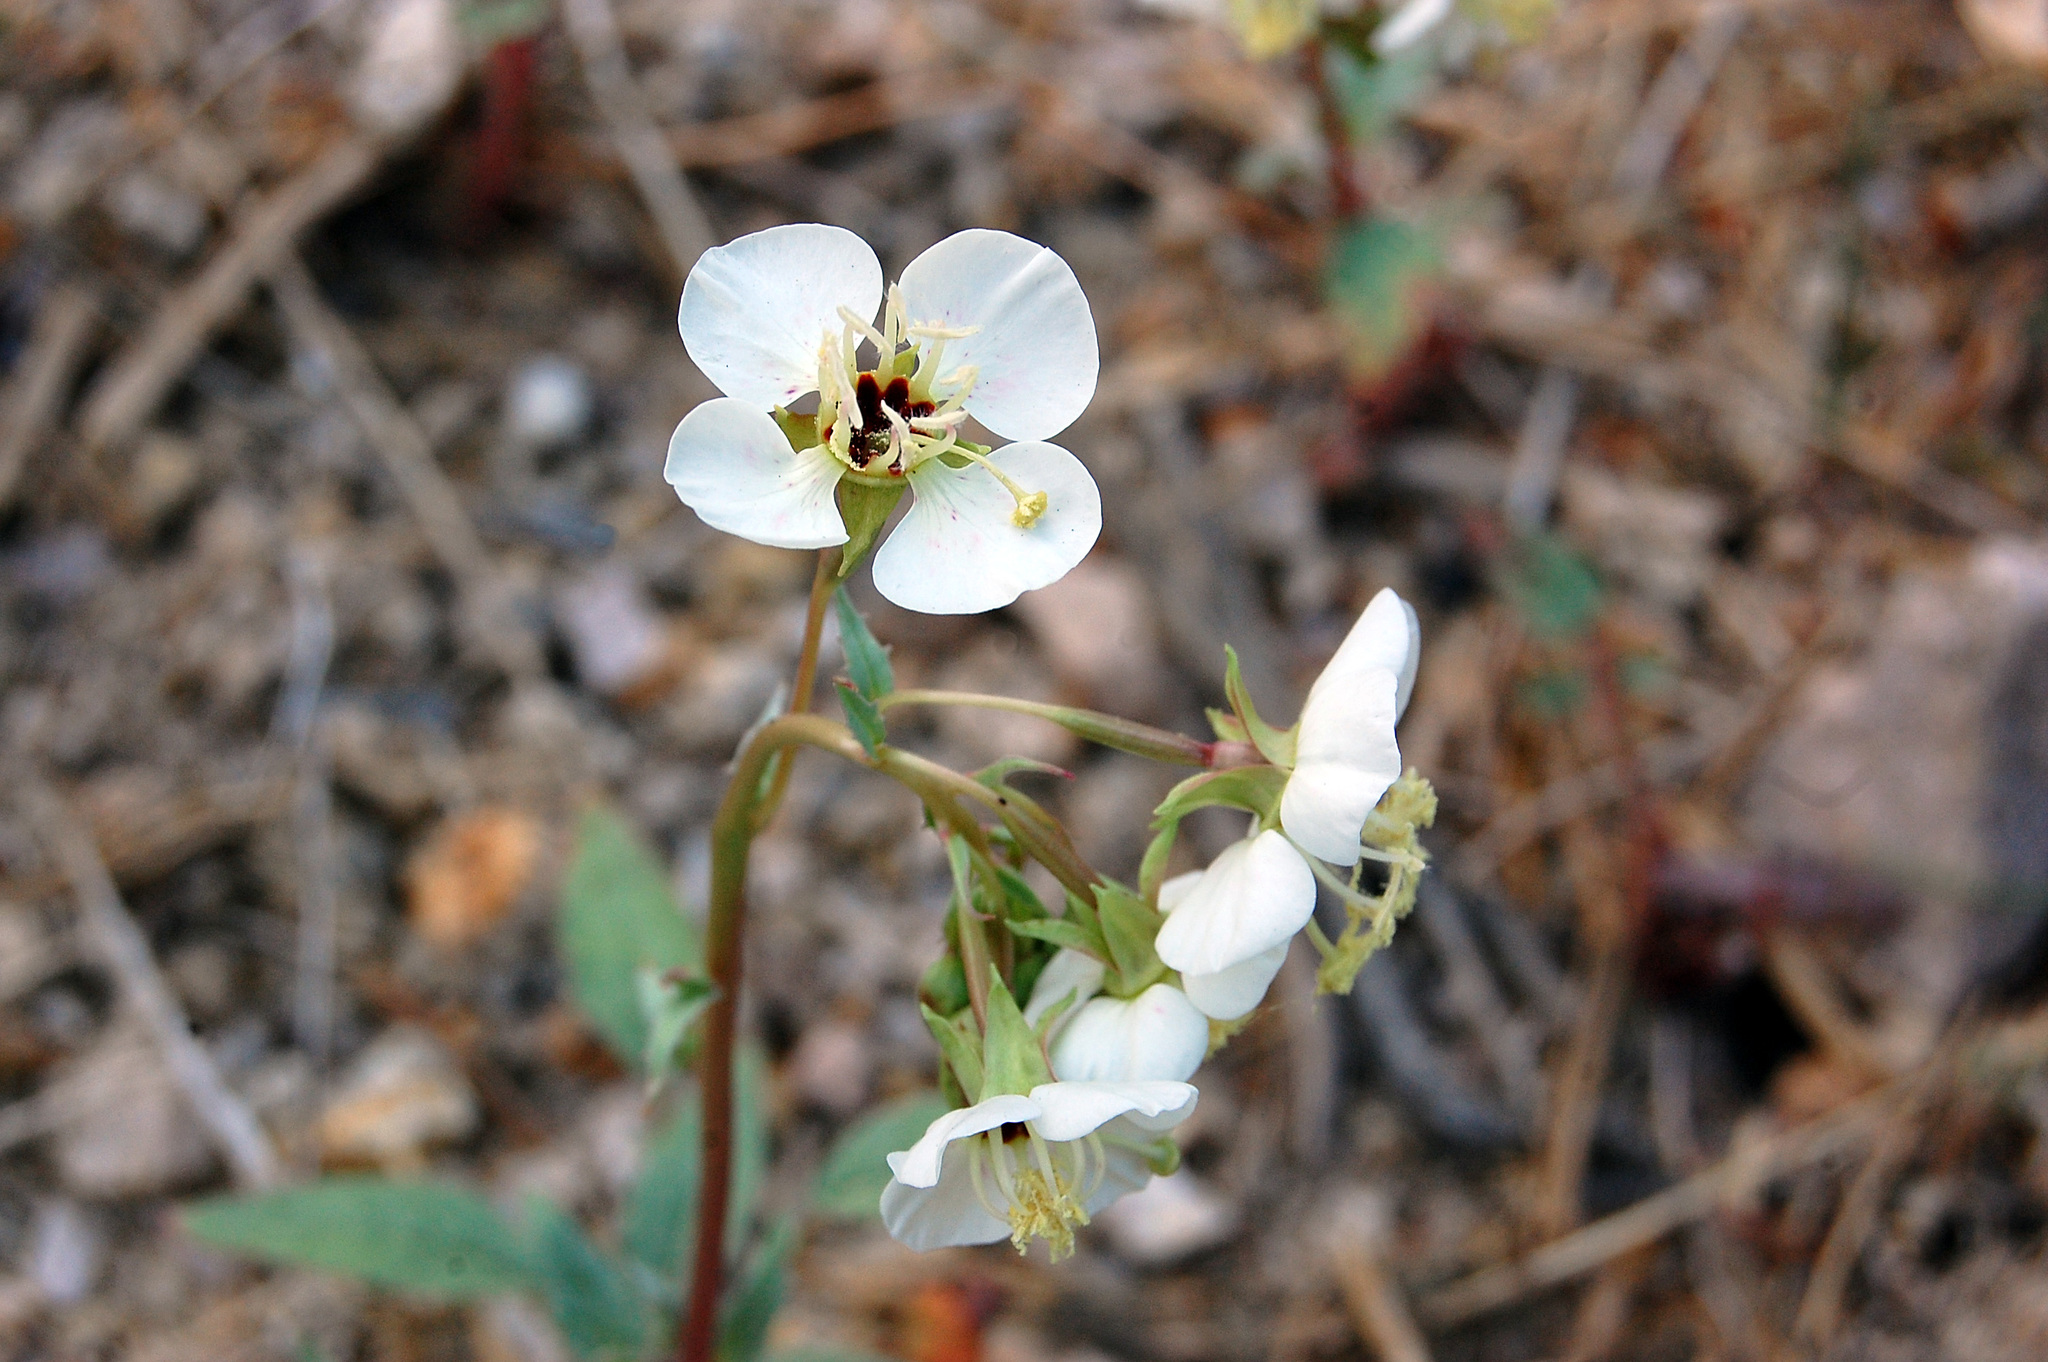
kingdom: Plantae
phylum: Tracheophyta
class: Magnoliopsida
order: Myrtales
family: Onagraceae
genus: Chylismia
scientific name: Chylismia claviformis
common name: Browneyes
